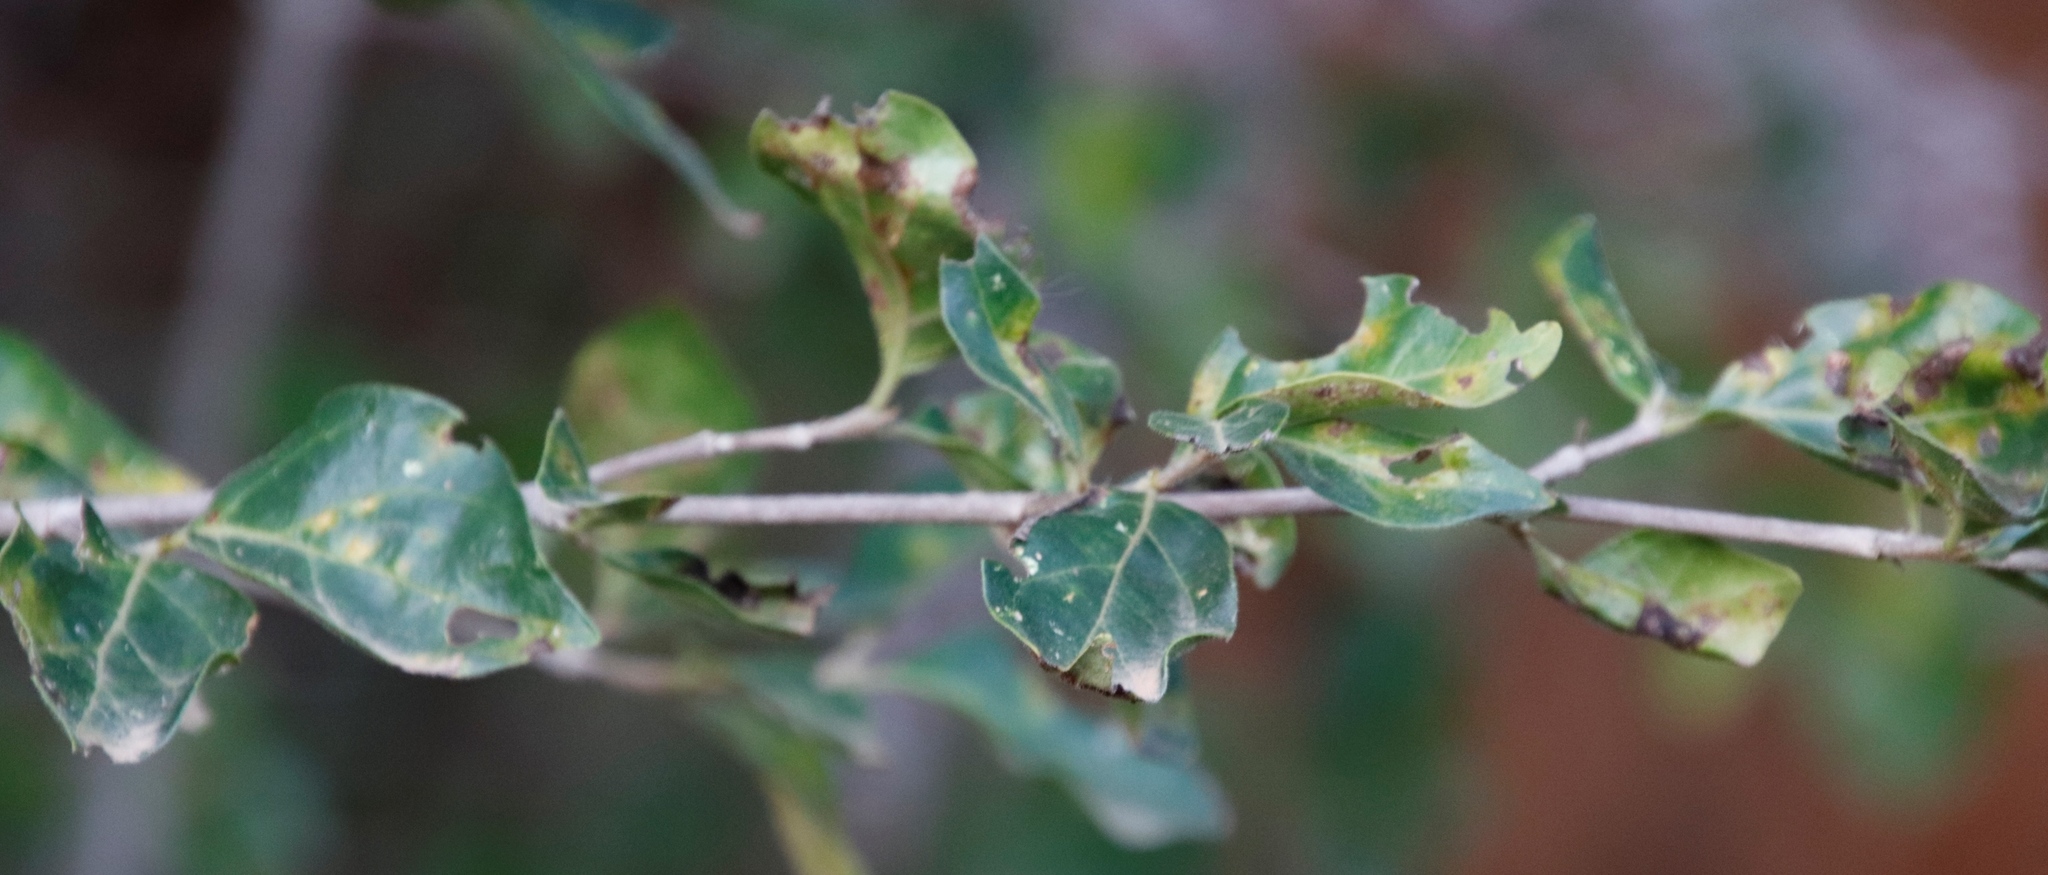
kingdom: Plantae
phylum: Tracheophyta
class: Magnoliopsida
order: Gentianales
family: Rubiaceae
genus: Canthium
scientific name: Canthium inerme
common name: Unarmed turkey-berry
